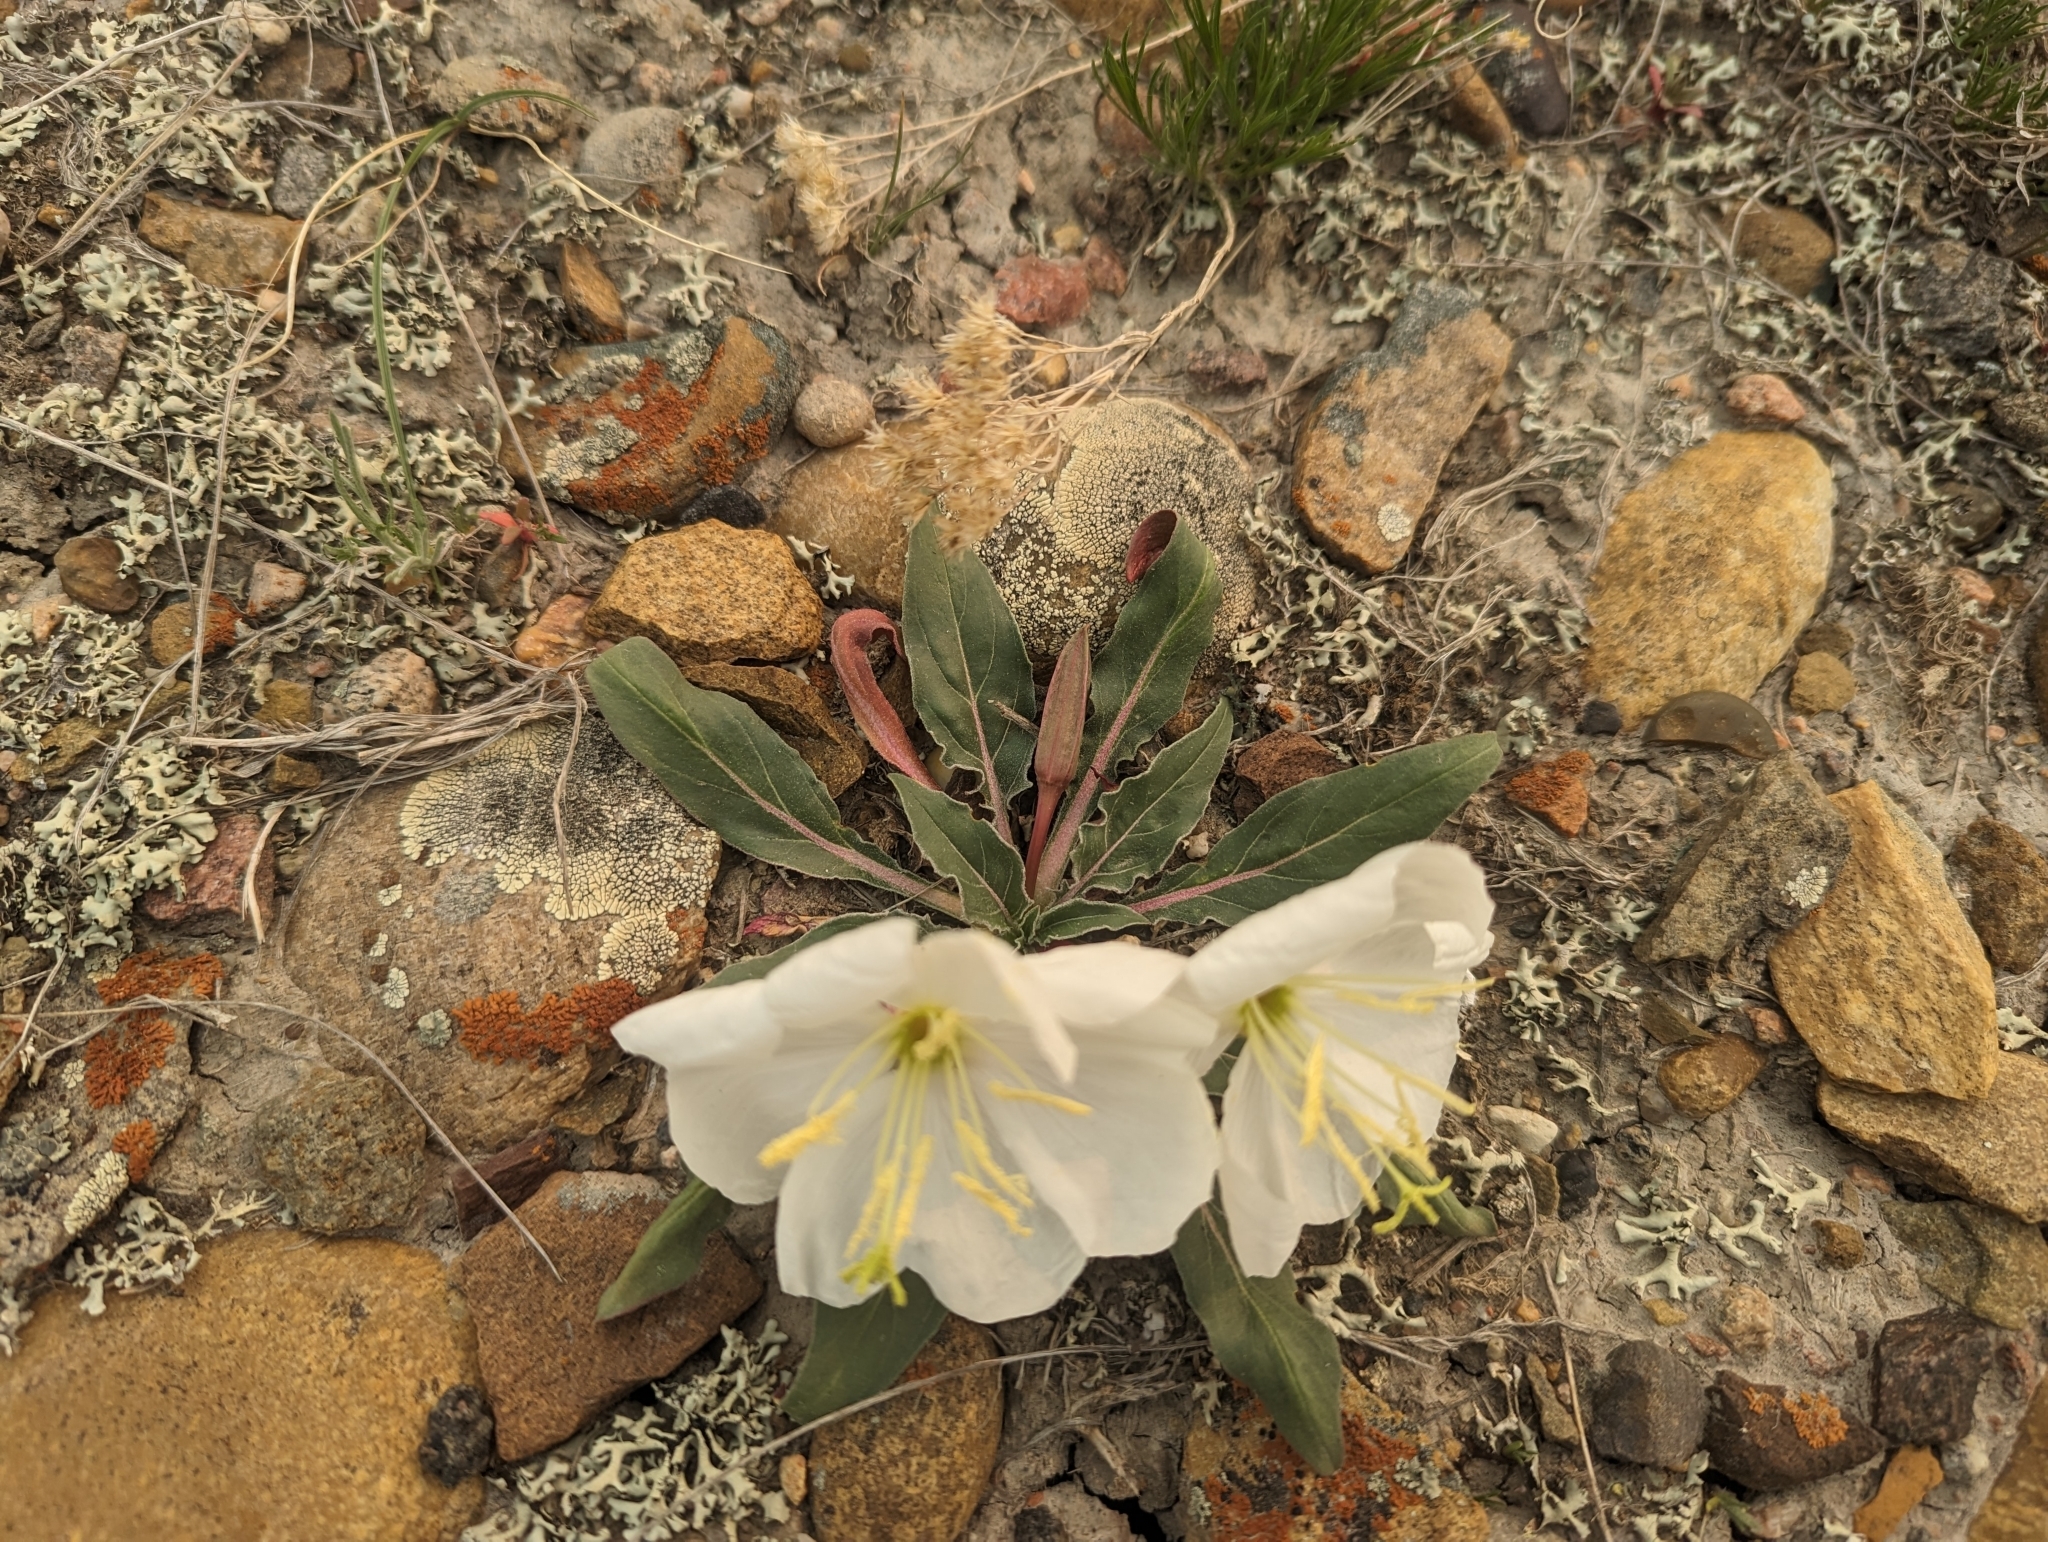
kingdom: Plantae
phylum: Tracheophyta
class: Magnoliopsida
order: Myrtales
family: Onagraceae
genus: Oenothera
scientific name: Oenothera cespitosa
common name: Tufted evening-primrose
